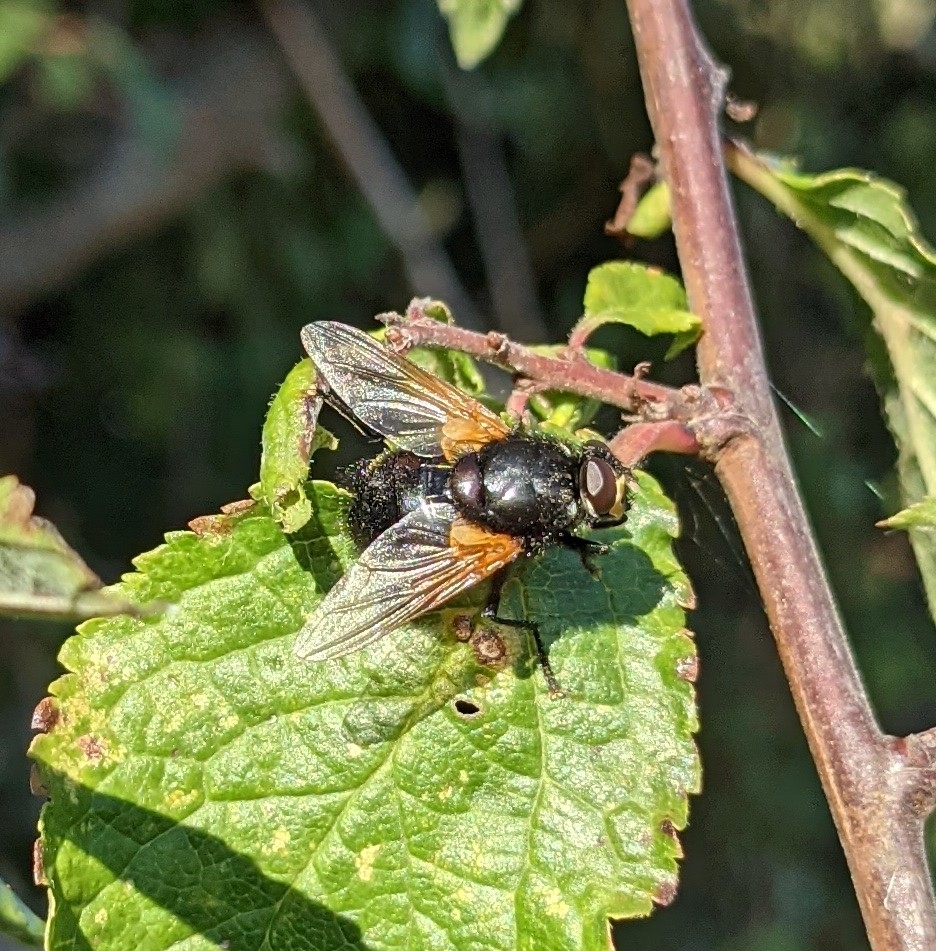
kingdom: Animalia
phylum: Arthropoda
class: Insecta
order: Diptera
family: Muscidae
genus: Mesembrina
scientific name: Mesembrina meridiana
